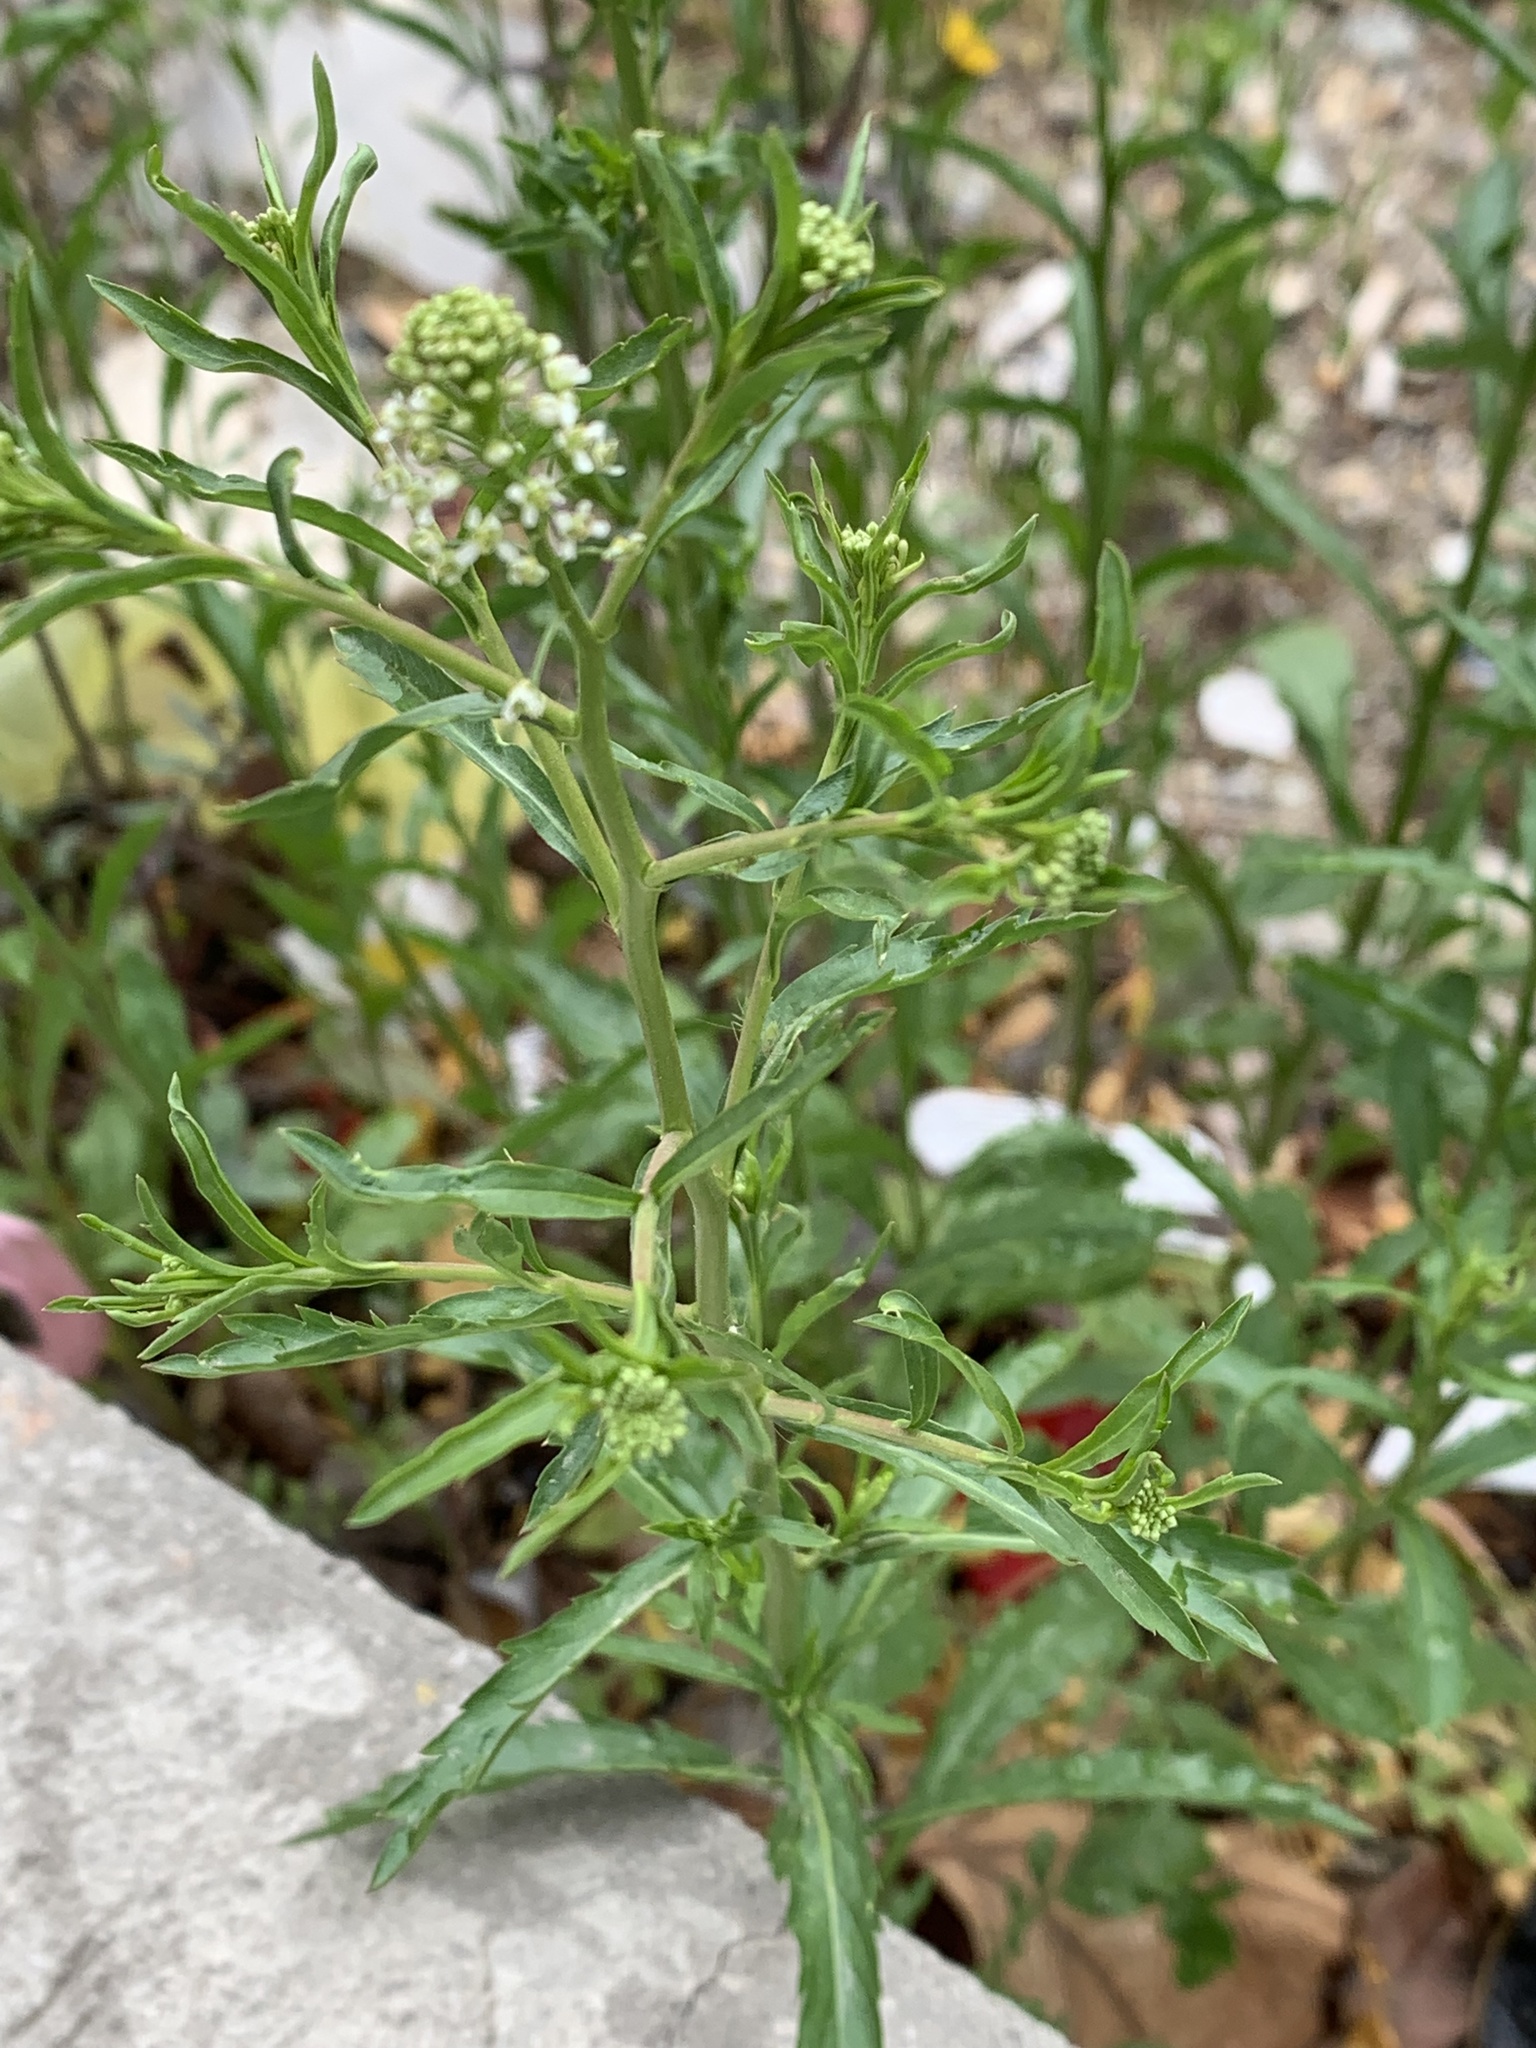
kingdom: Plantae
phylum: Tracheophyta
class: Magnoliopsida
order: Brassicales
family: Brassicaceae
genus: Lepidium
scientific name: Lepidium virginicum
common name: Least pepperwort
